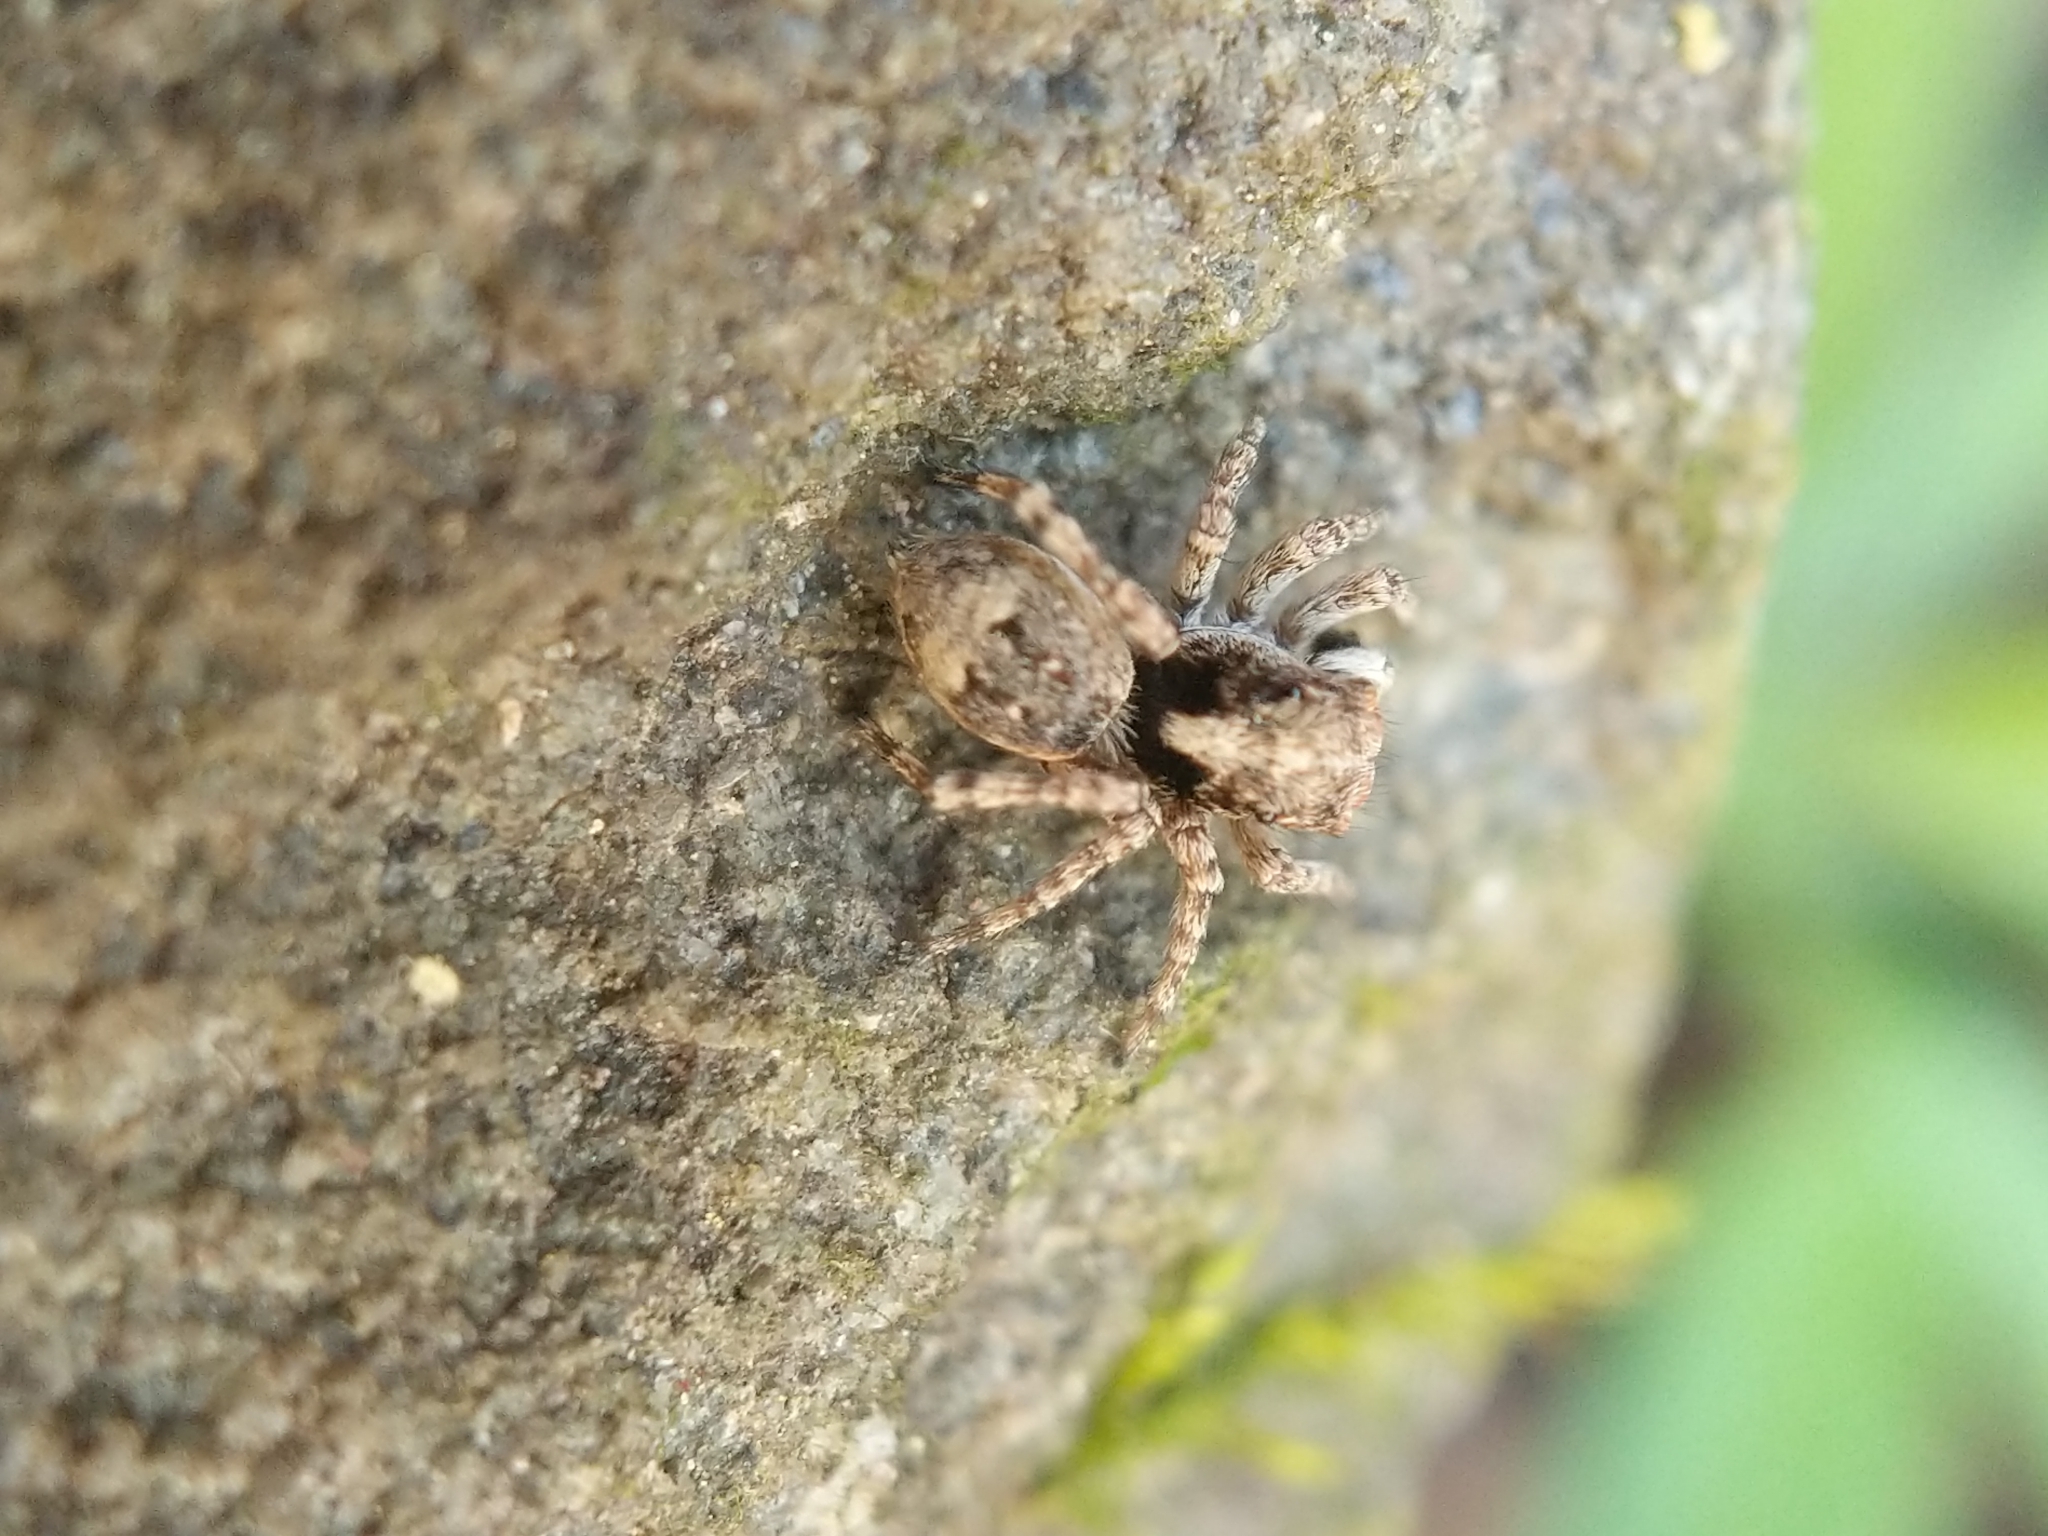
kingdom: Animalia
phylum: Arthropoda
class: Arachnida
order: Araneae
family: Salticidae
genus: Attulus
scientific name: Attulus fasciger
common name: Asiatic wall jumping spider
